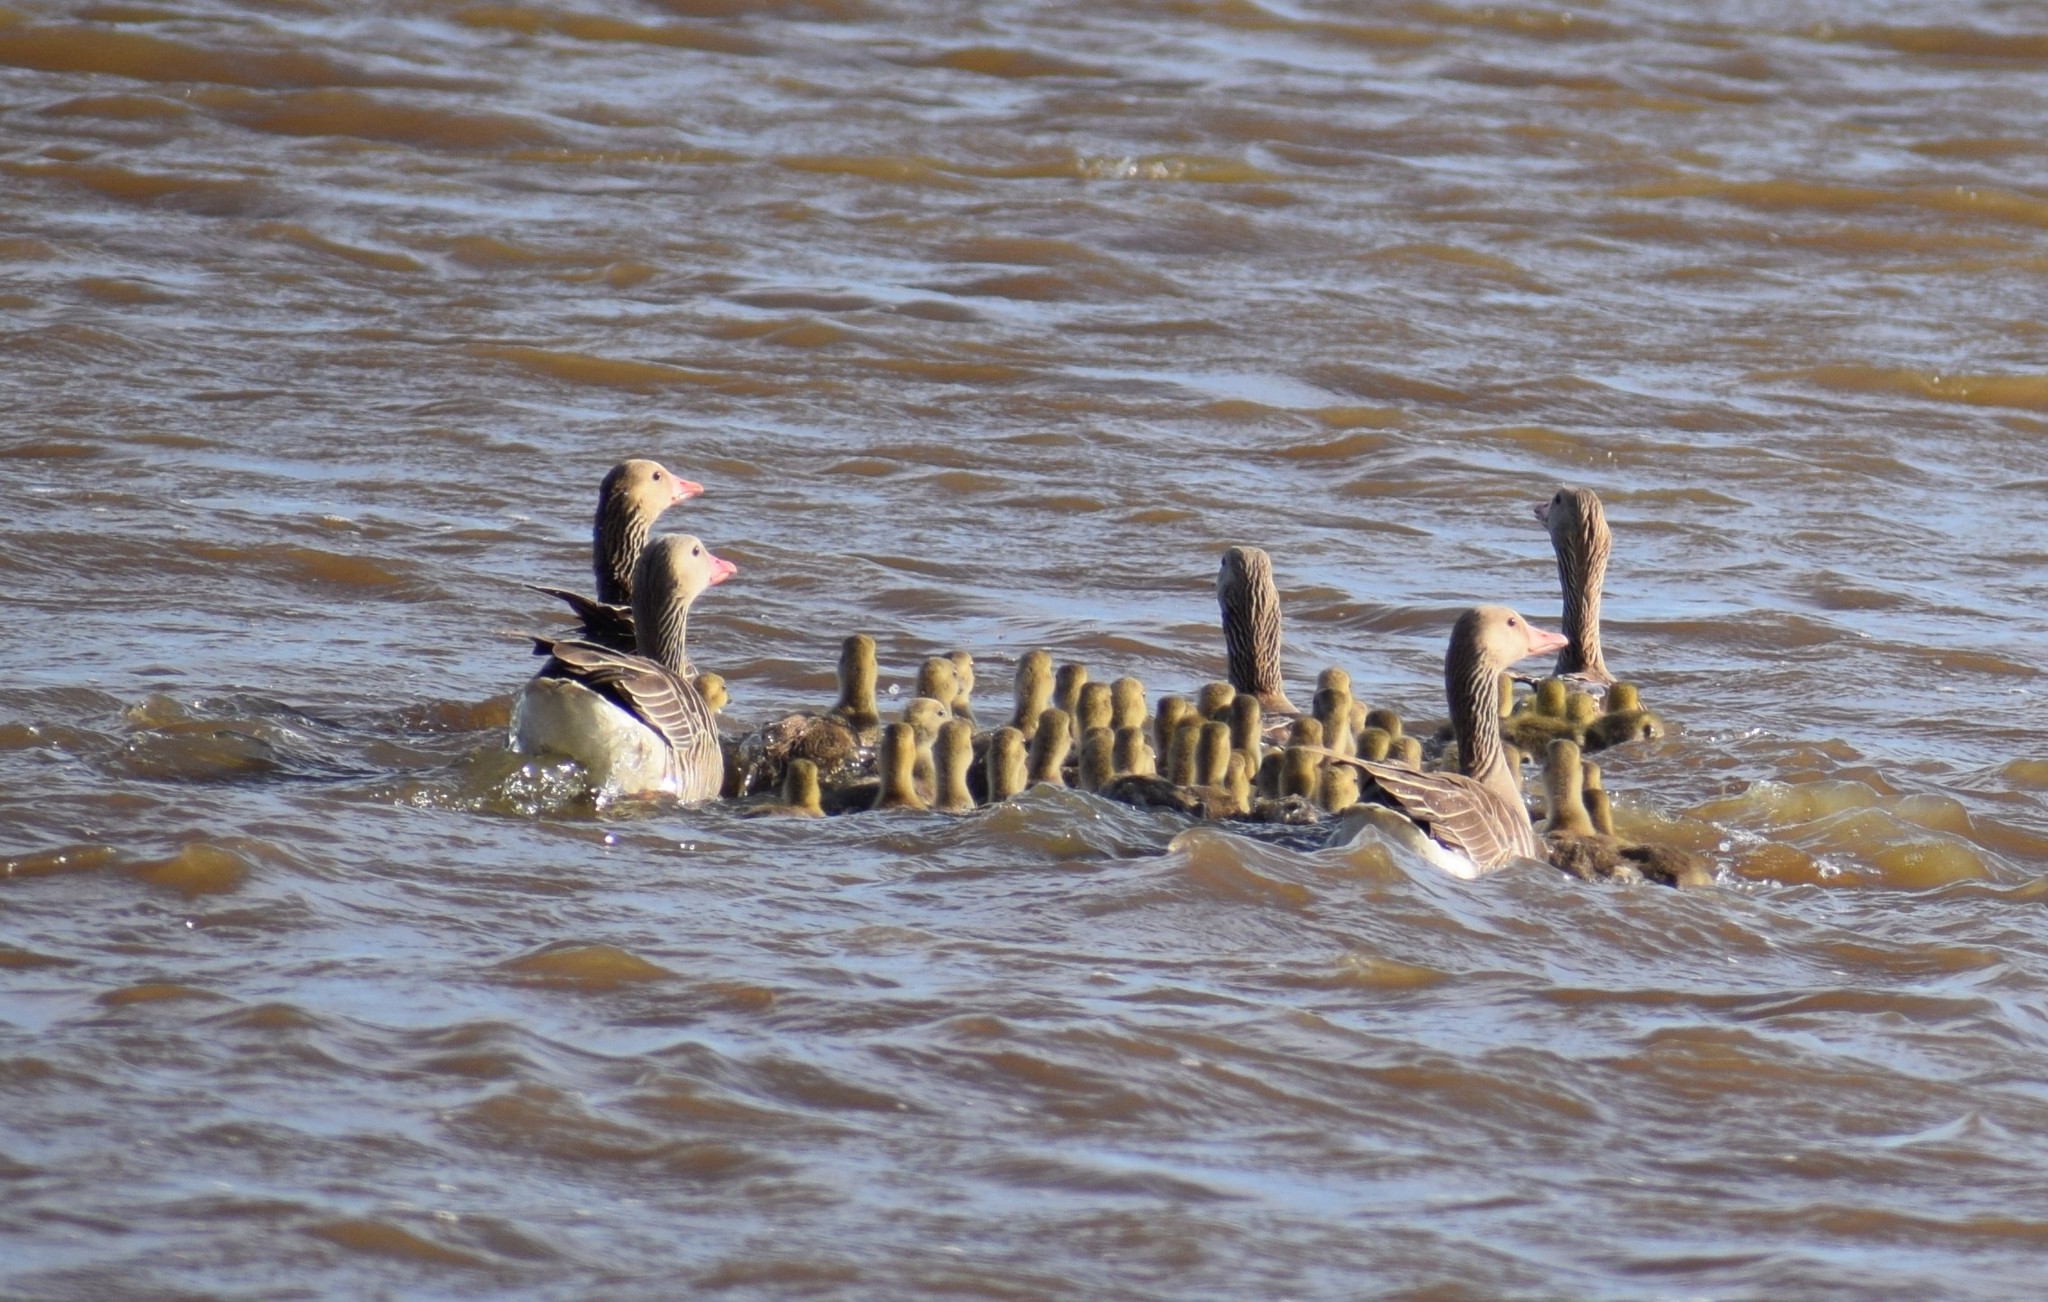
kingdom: Animalia
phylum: Chordata
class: Aves
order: Anseriformes
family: Anatidae
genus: Anser
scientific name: Anser anser
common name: Greylag goose
